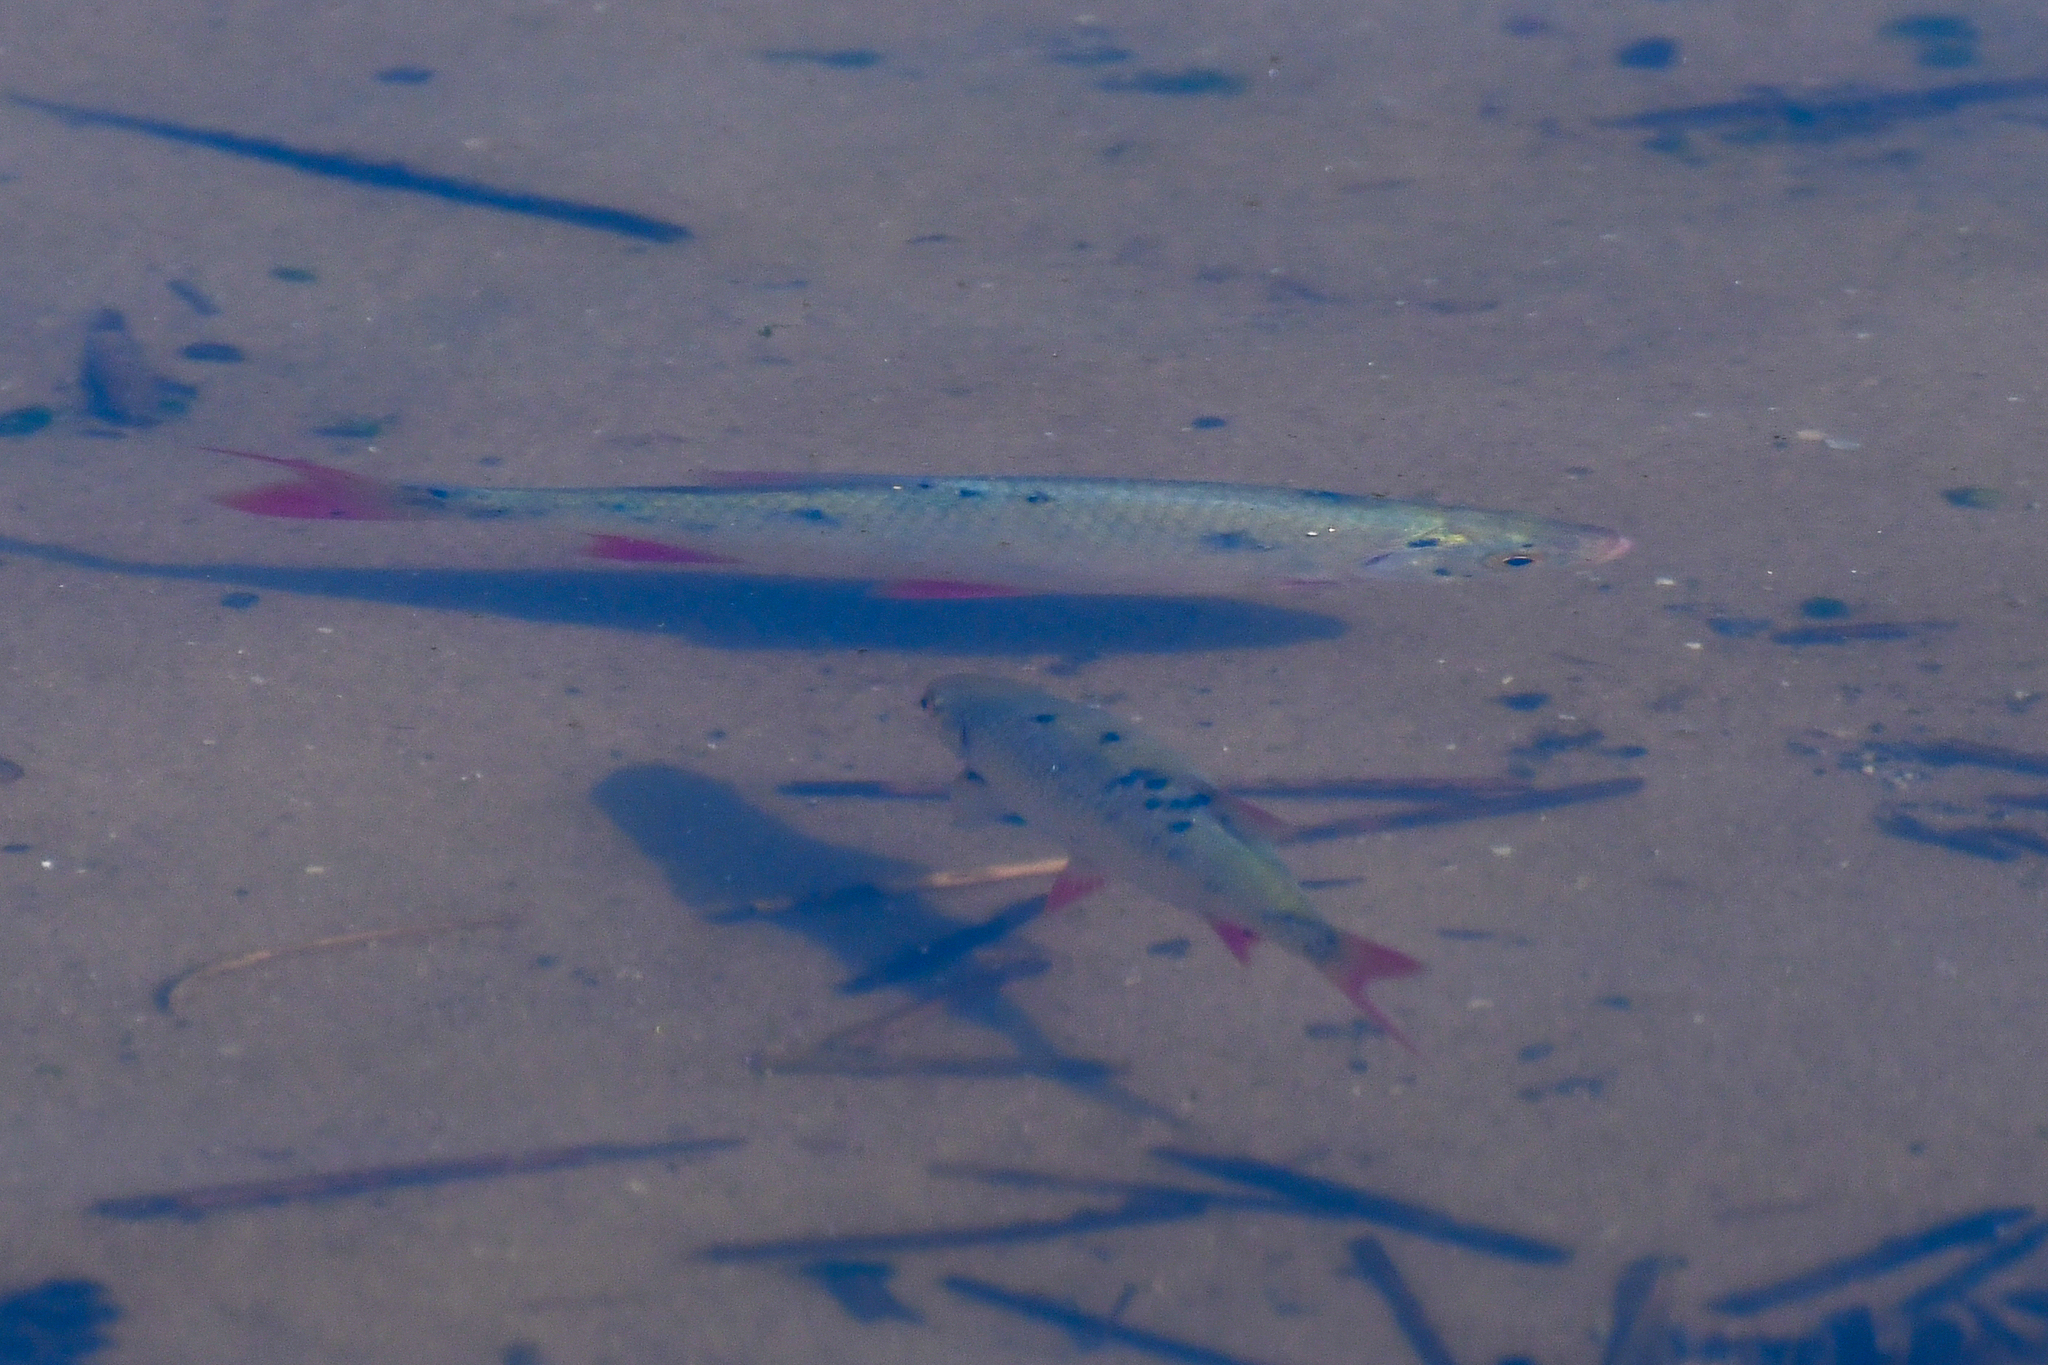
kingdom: Animalia
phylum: Chordata
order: Cypriniformes
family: Cyprinidae
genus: Scardinius
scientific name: Scardinius erythrophthalmus
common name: Rudd
